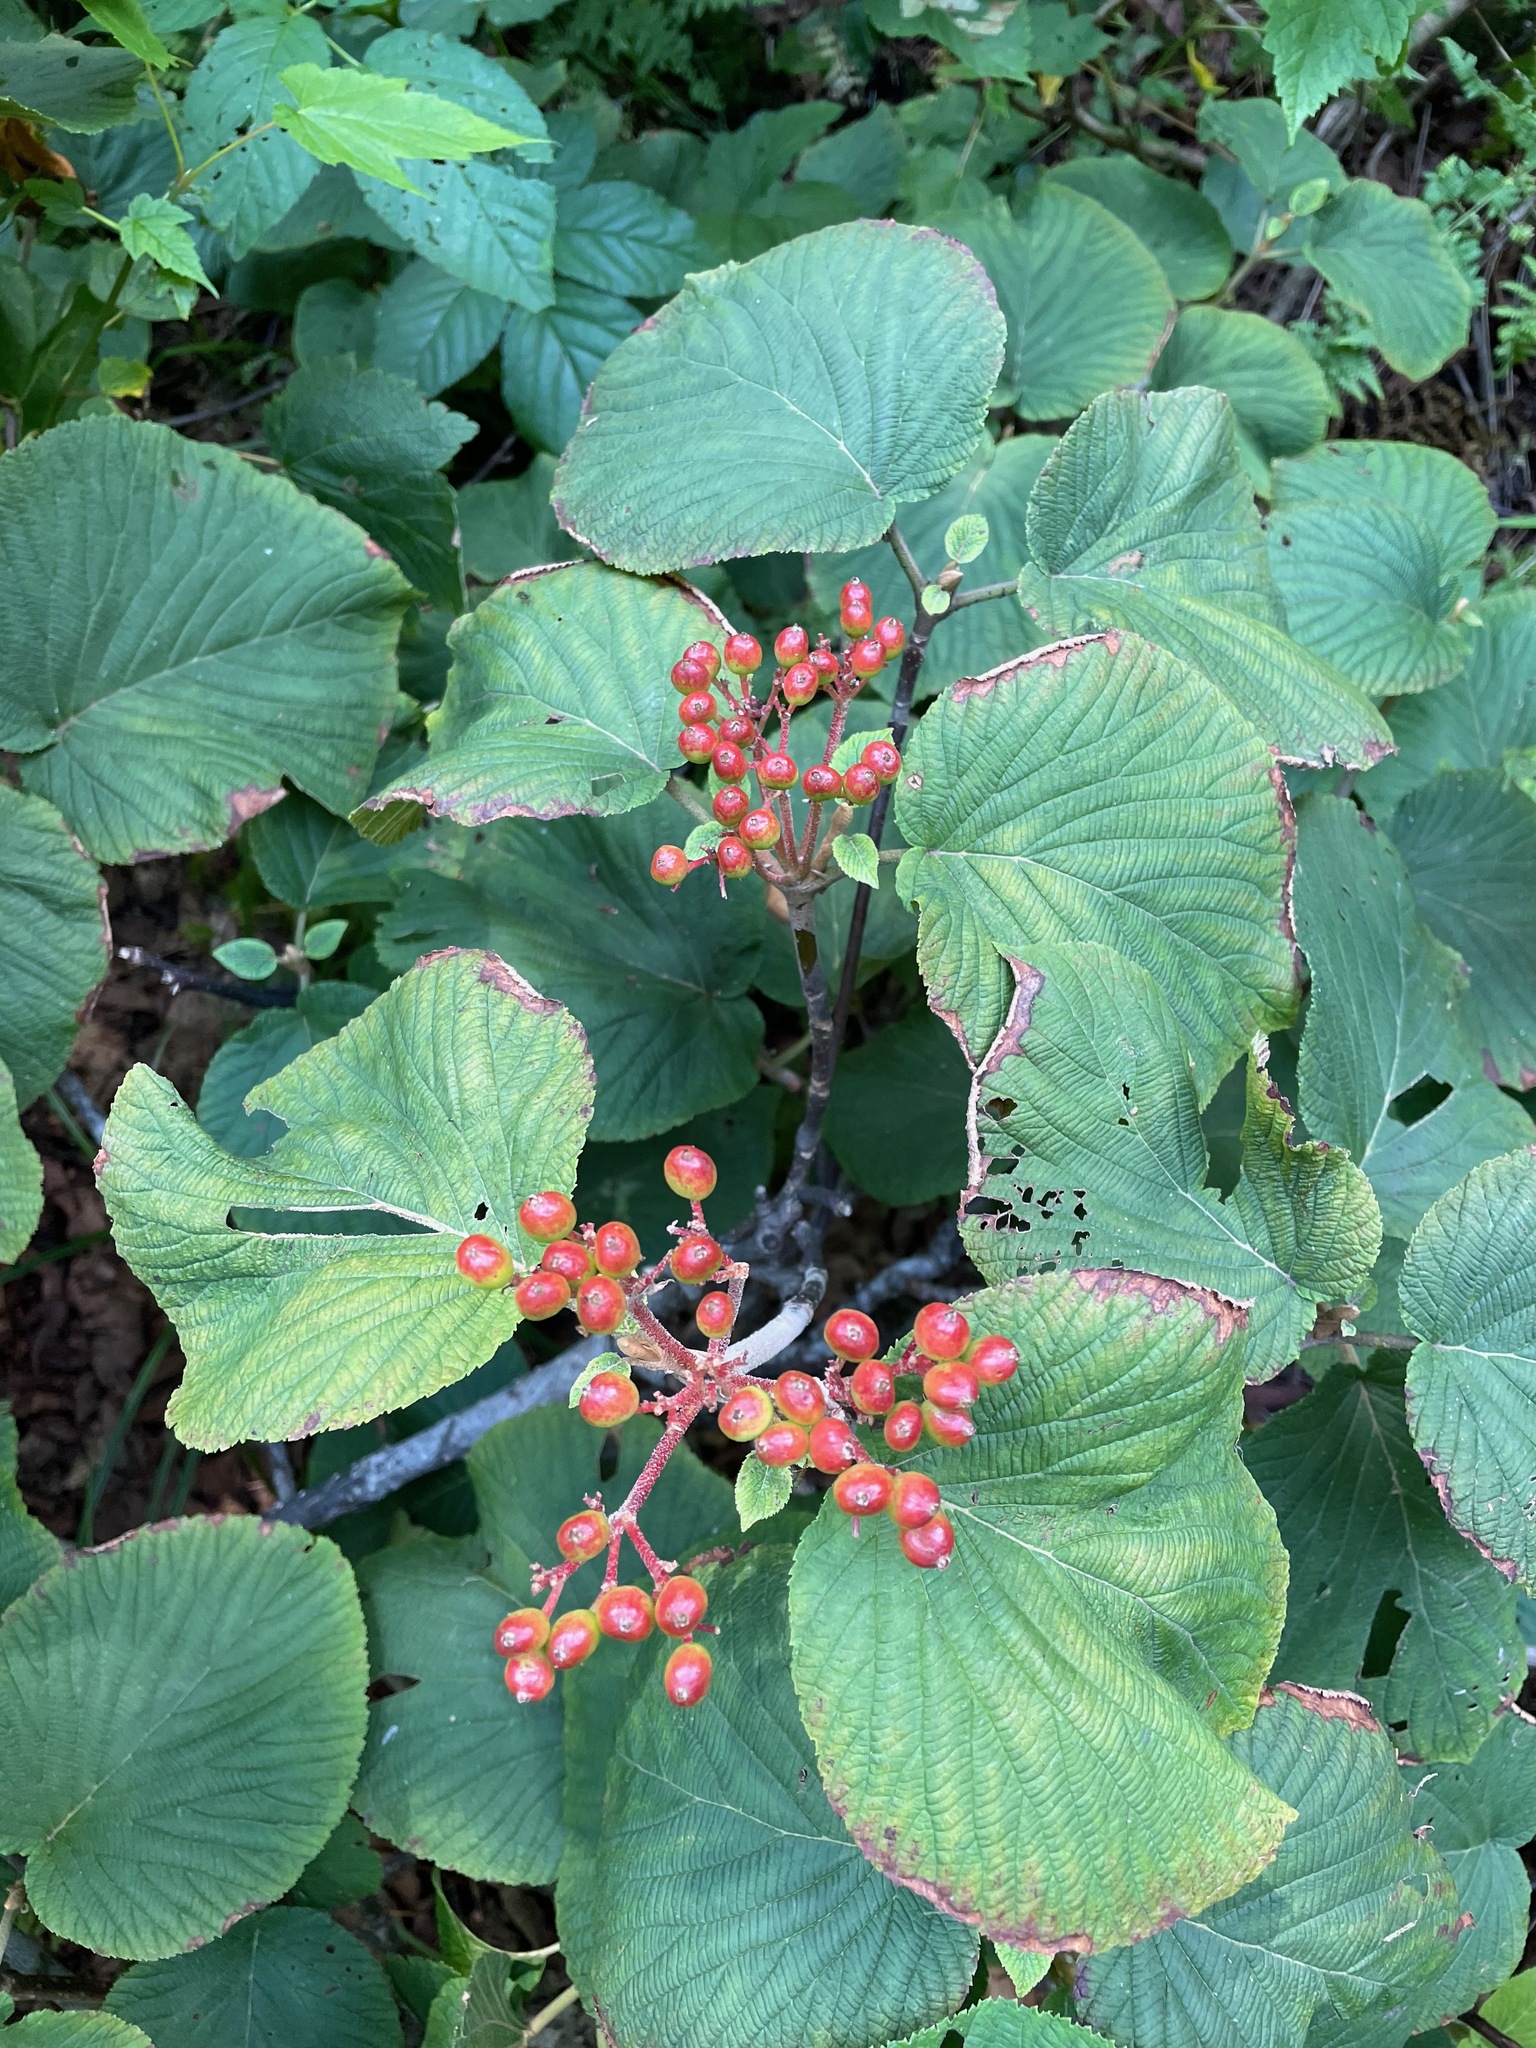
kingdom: Plantae
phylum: Tracheophyta
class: Magnoliopsida
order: Dipsacales
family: Viburnaceae
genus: Viburnum
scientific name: Viburnum lantanoides
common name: Hobblebush
